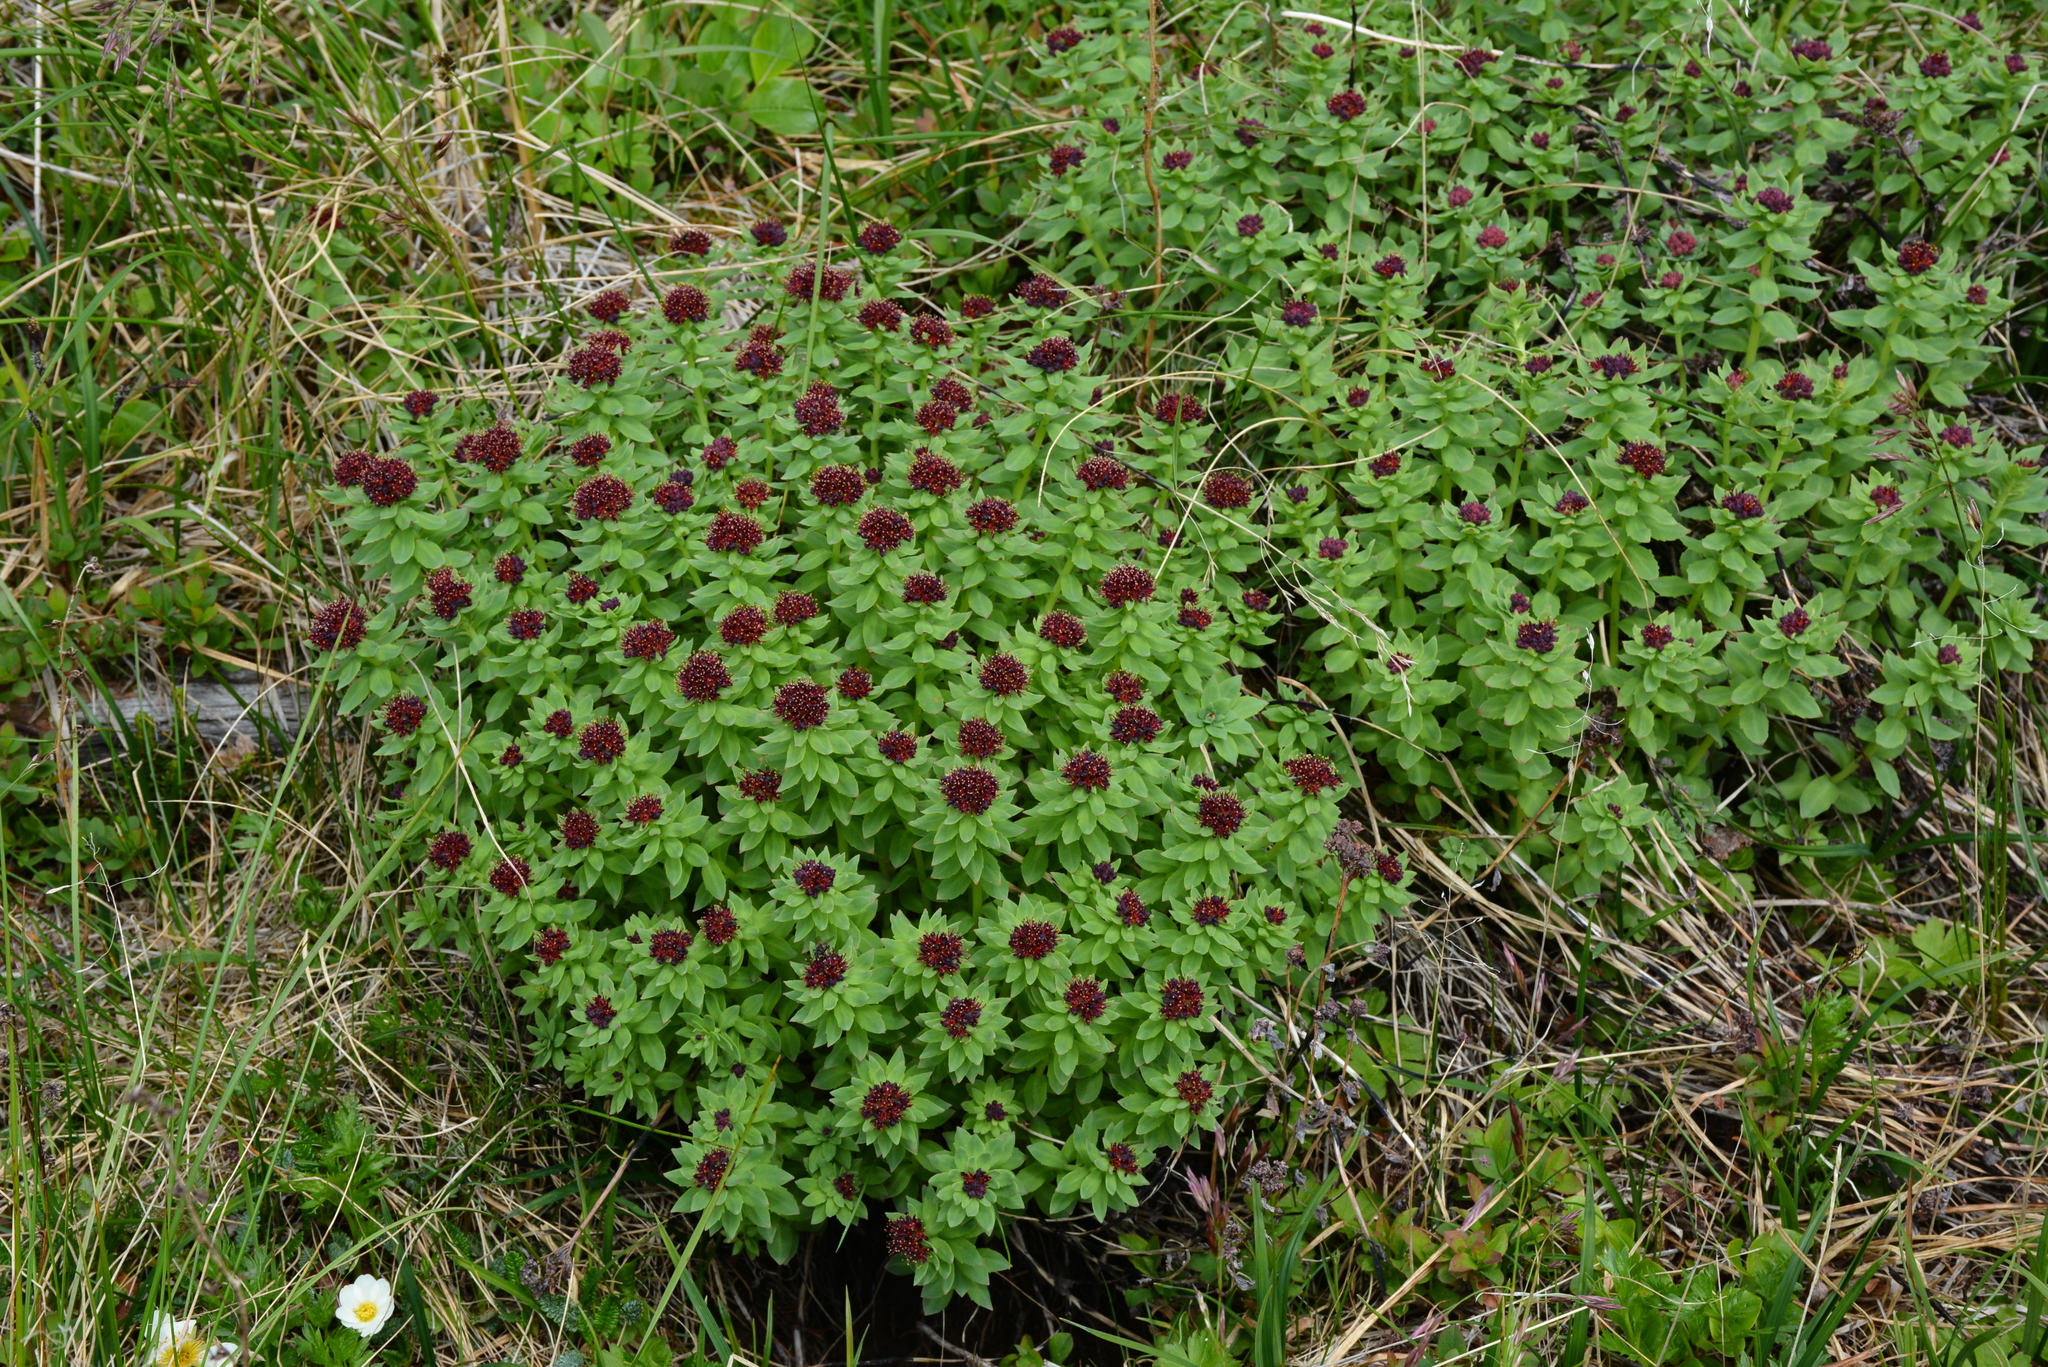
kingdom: Plantae
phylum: Tracheophyta
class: Magnoliopsida
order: Saxifragales
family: Crassulaceae
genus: Rhodiola
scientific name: Rhodiola integrifolia
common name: Western roseroot
